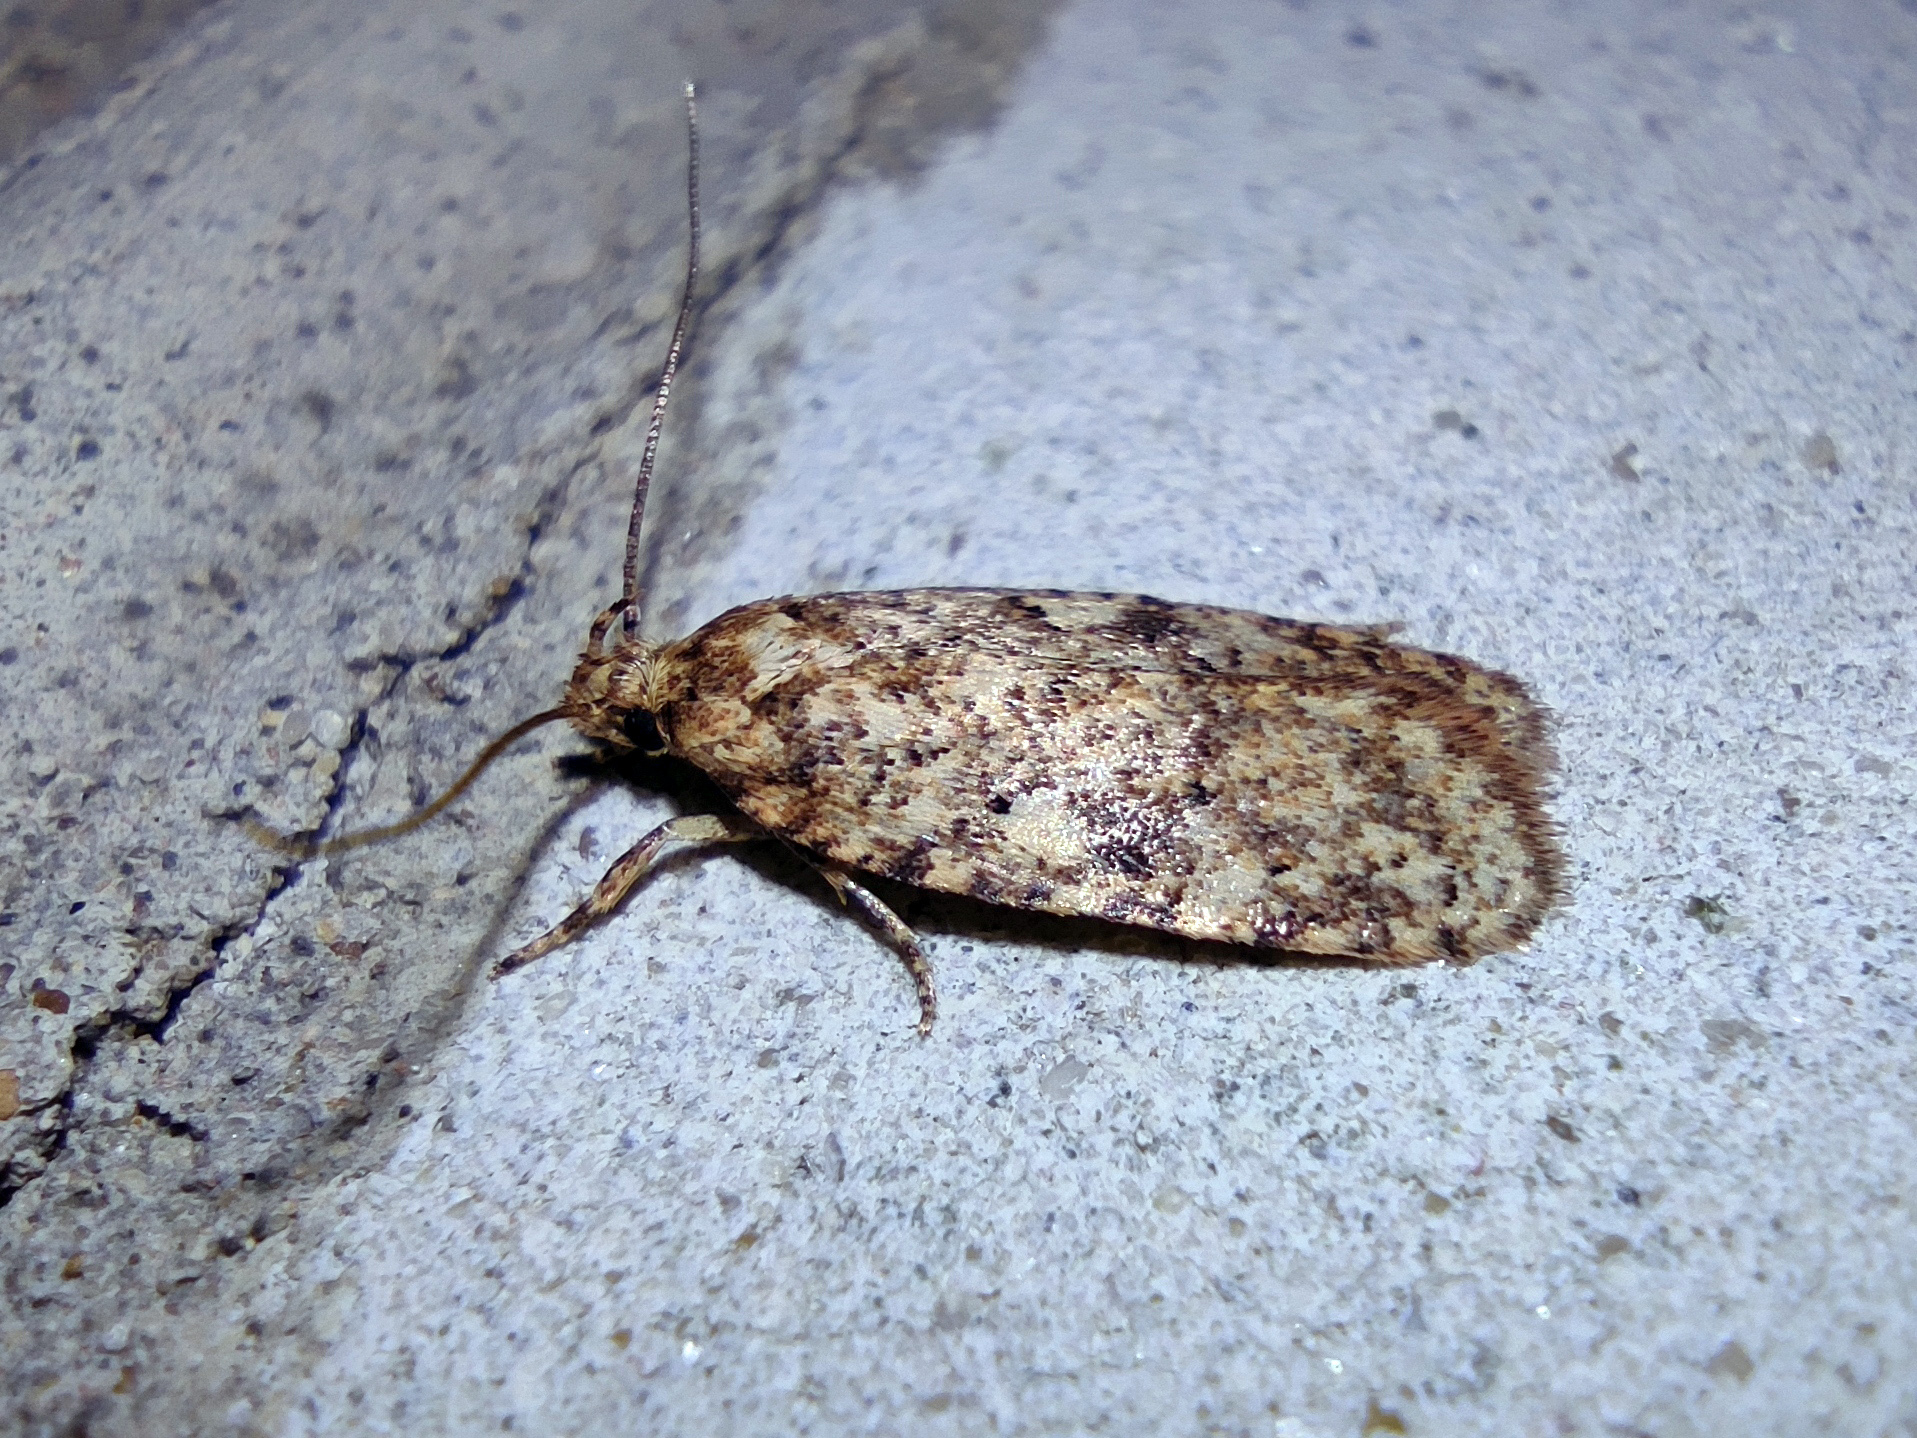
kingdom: Animalia
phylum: Arthropoda
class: Insecta
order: Lepidoptera
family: Depressariidae
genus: Agonopterix
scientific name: Agonopterix ferocella
